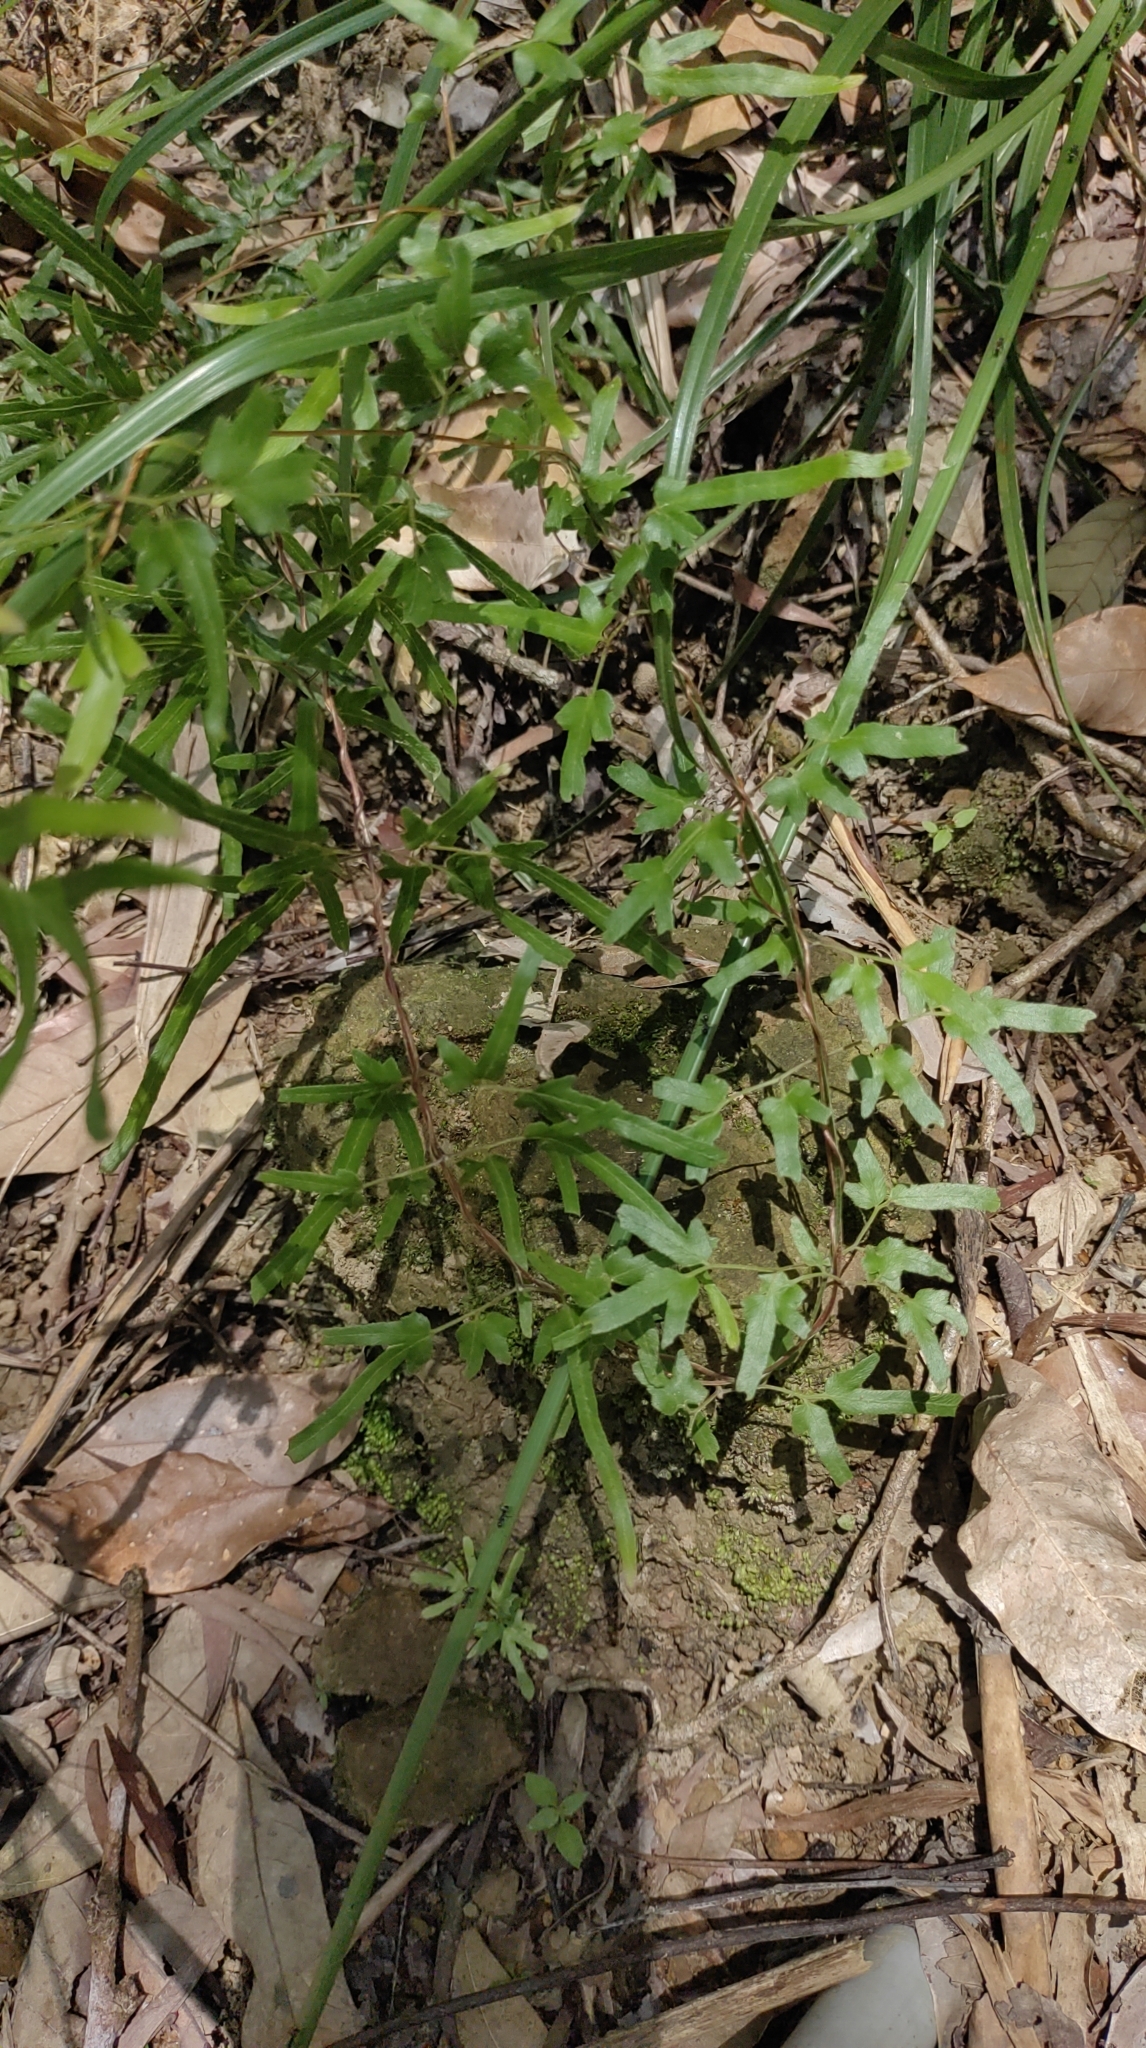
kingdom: Plantae
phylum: Tracheophyta
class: Polypodiopsida
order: Schizaeales
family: Lygodiaceae
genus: Lygodium
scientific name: Lygodium japonicum
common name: Japanese climbing fern
